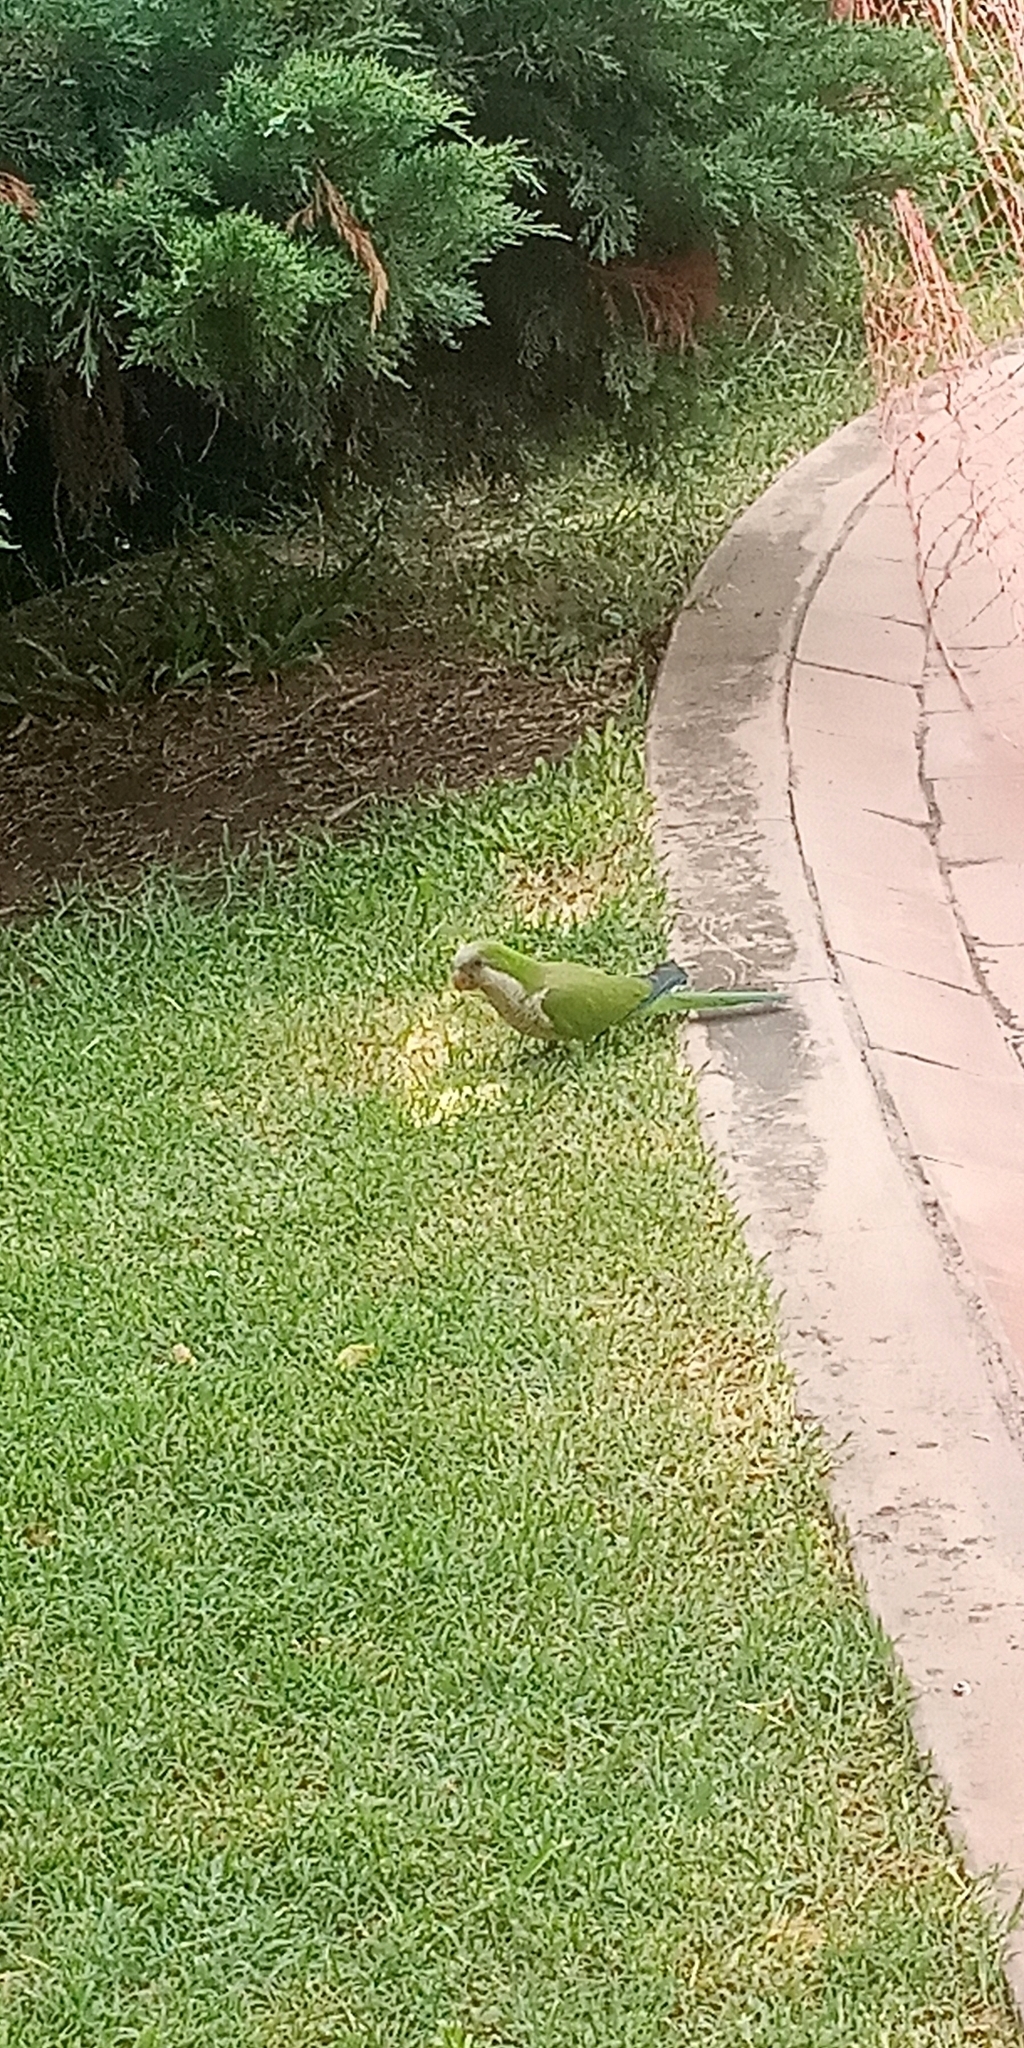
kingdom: Animalia
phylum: Chordata
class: Aves
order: Psittaciformes
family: Psittacidae
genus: Myiopsitta
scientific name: Myiopsitta monachus
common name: Monk parakeet
